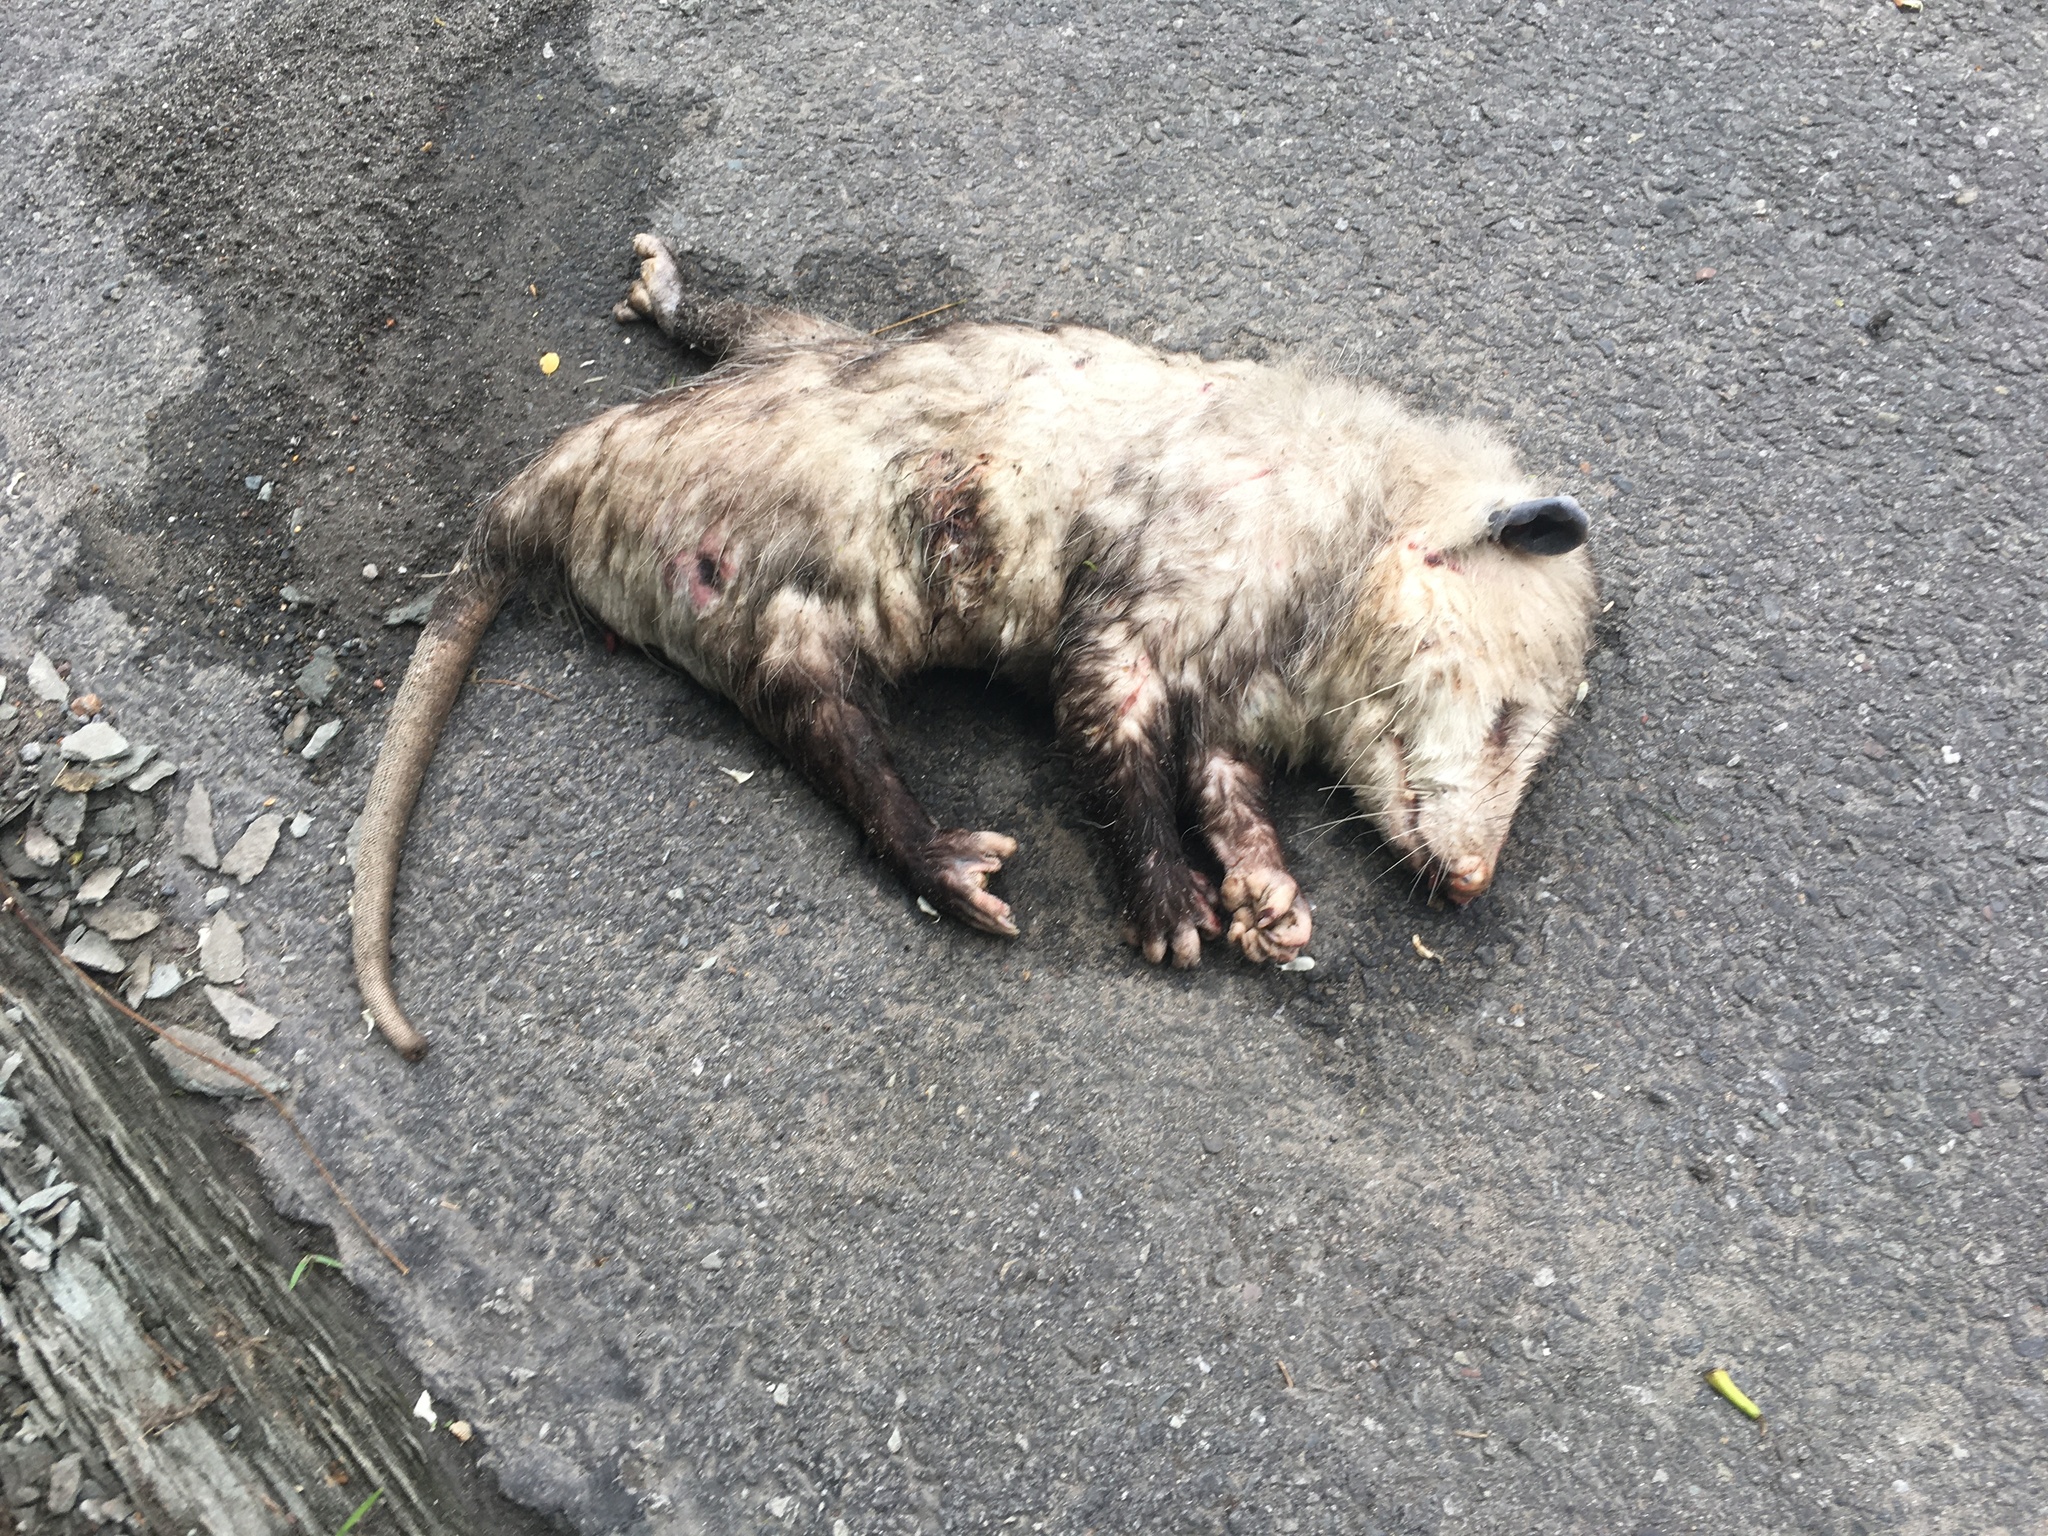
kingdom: Animalia
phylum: Chordata
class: Mammalia
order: Didelphimorphia
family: Didelphidae
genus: Didelphis
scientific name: Didelphis virginiana
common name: Virginia opossum
